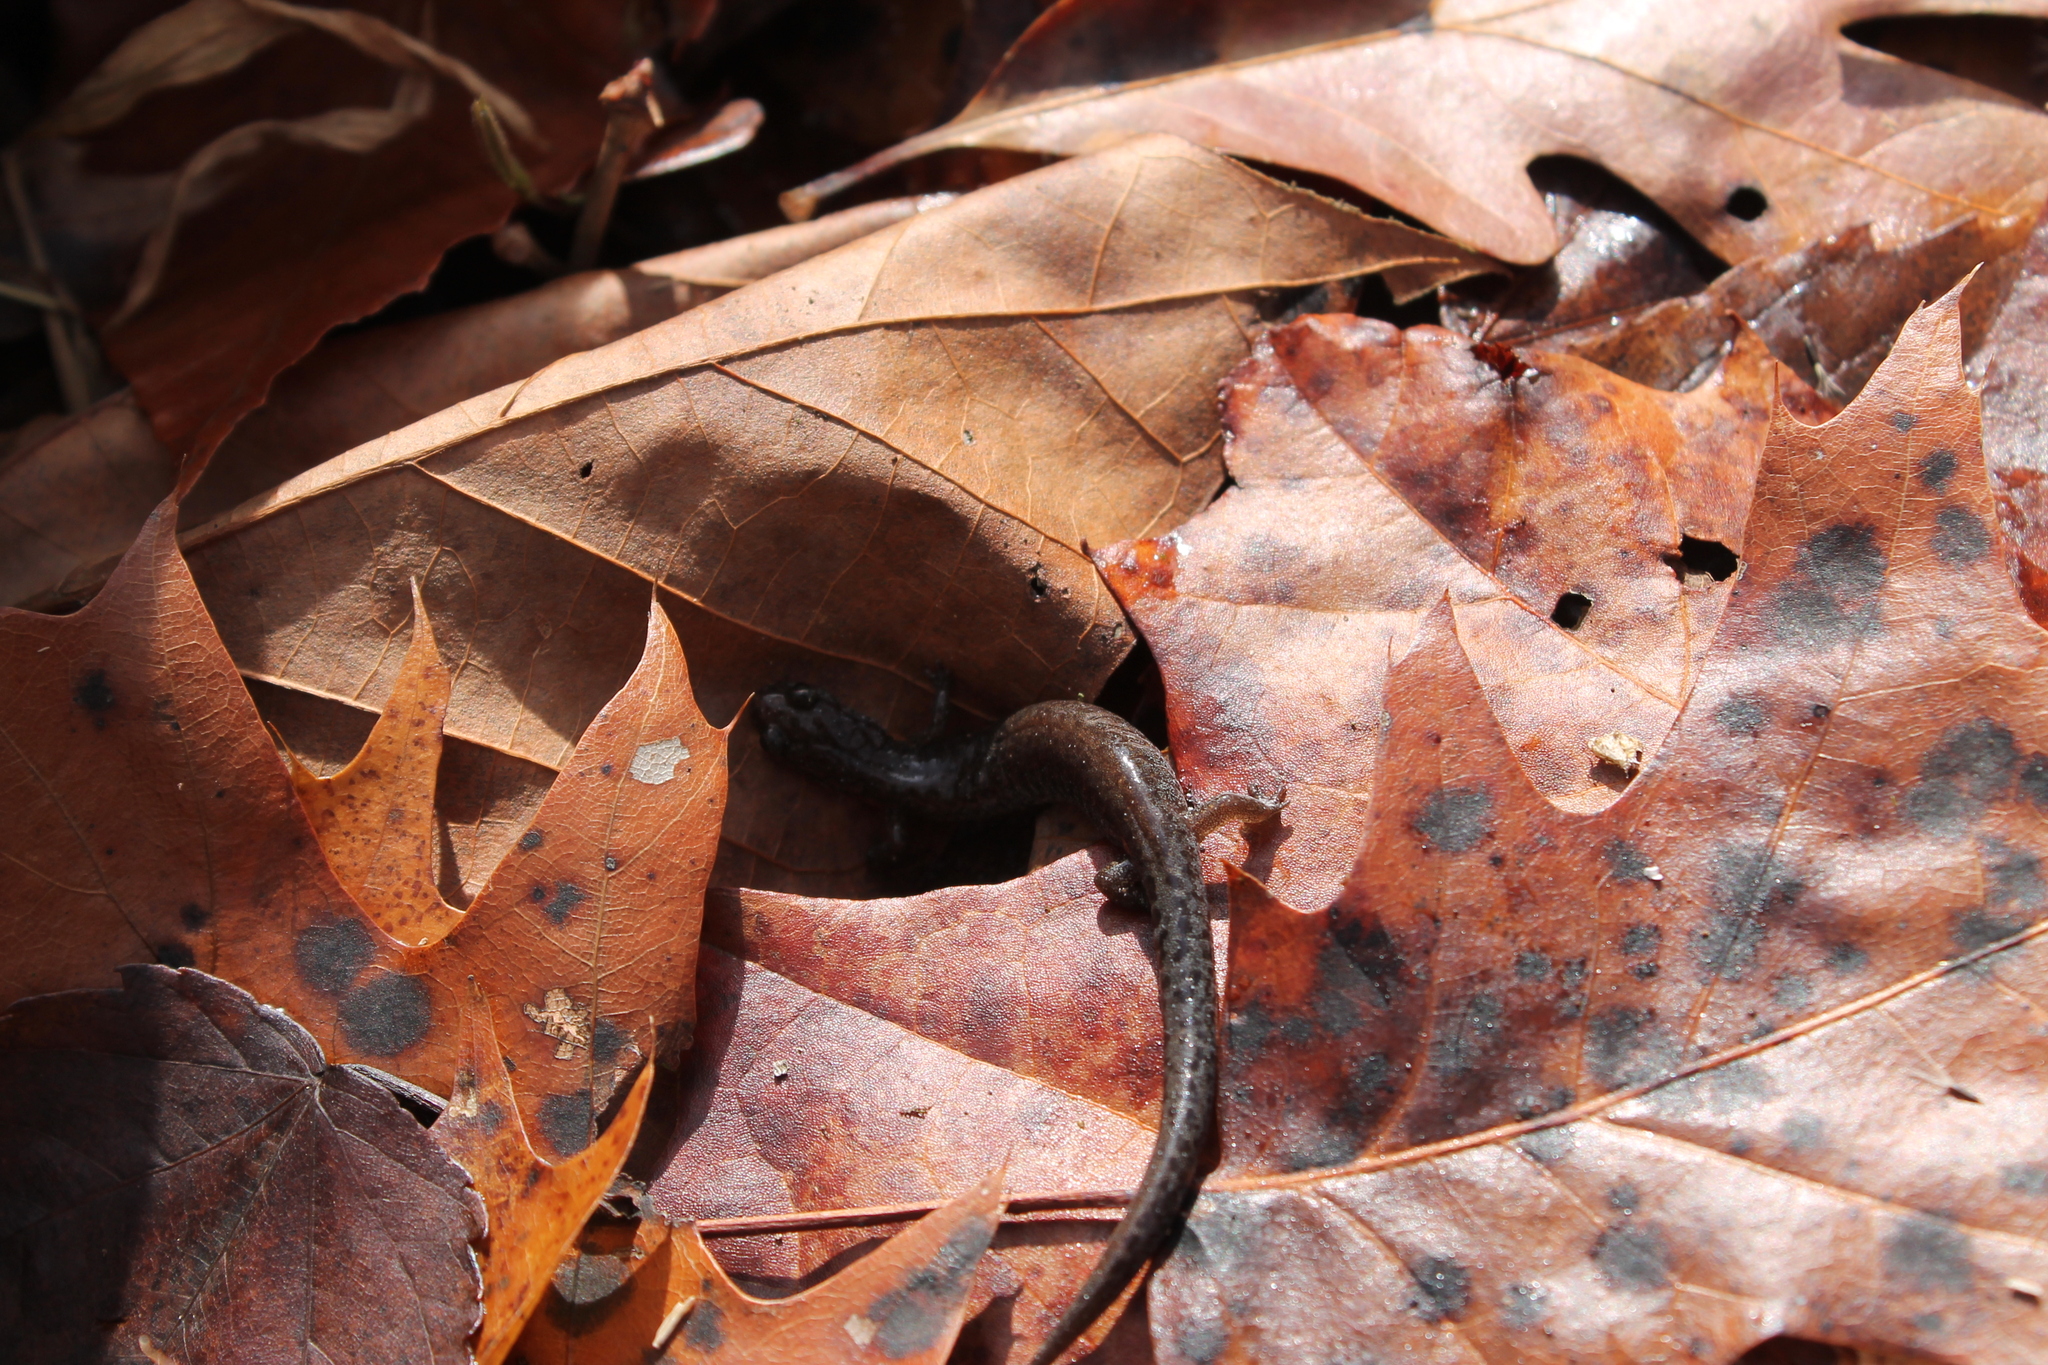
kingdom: Animalia
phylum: Chordata
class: Amphibia
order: Caudata
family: Plethodontidae
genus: Plethodon
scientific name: Plethodon dorsalis
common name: Northern zigzag salamander
